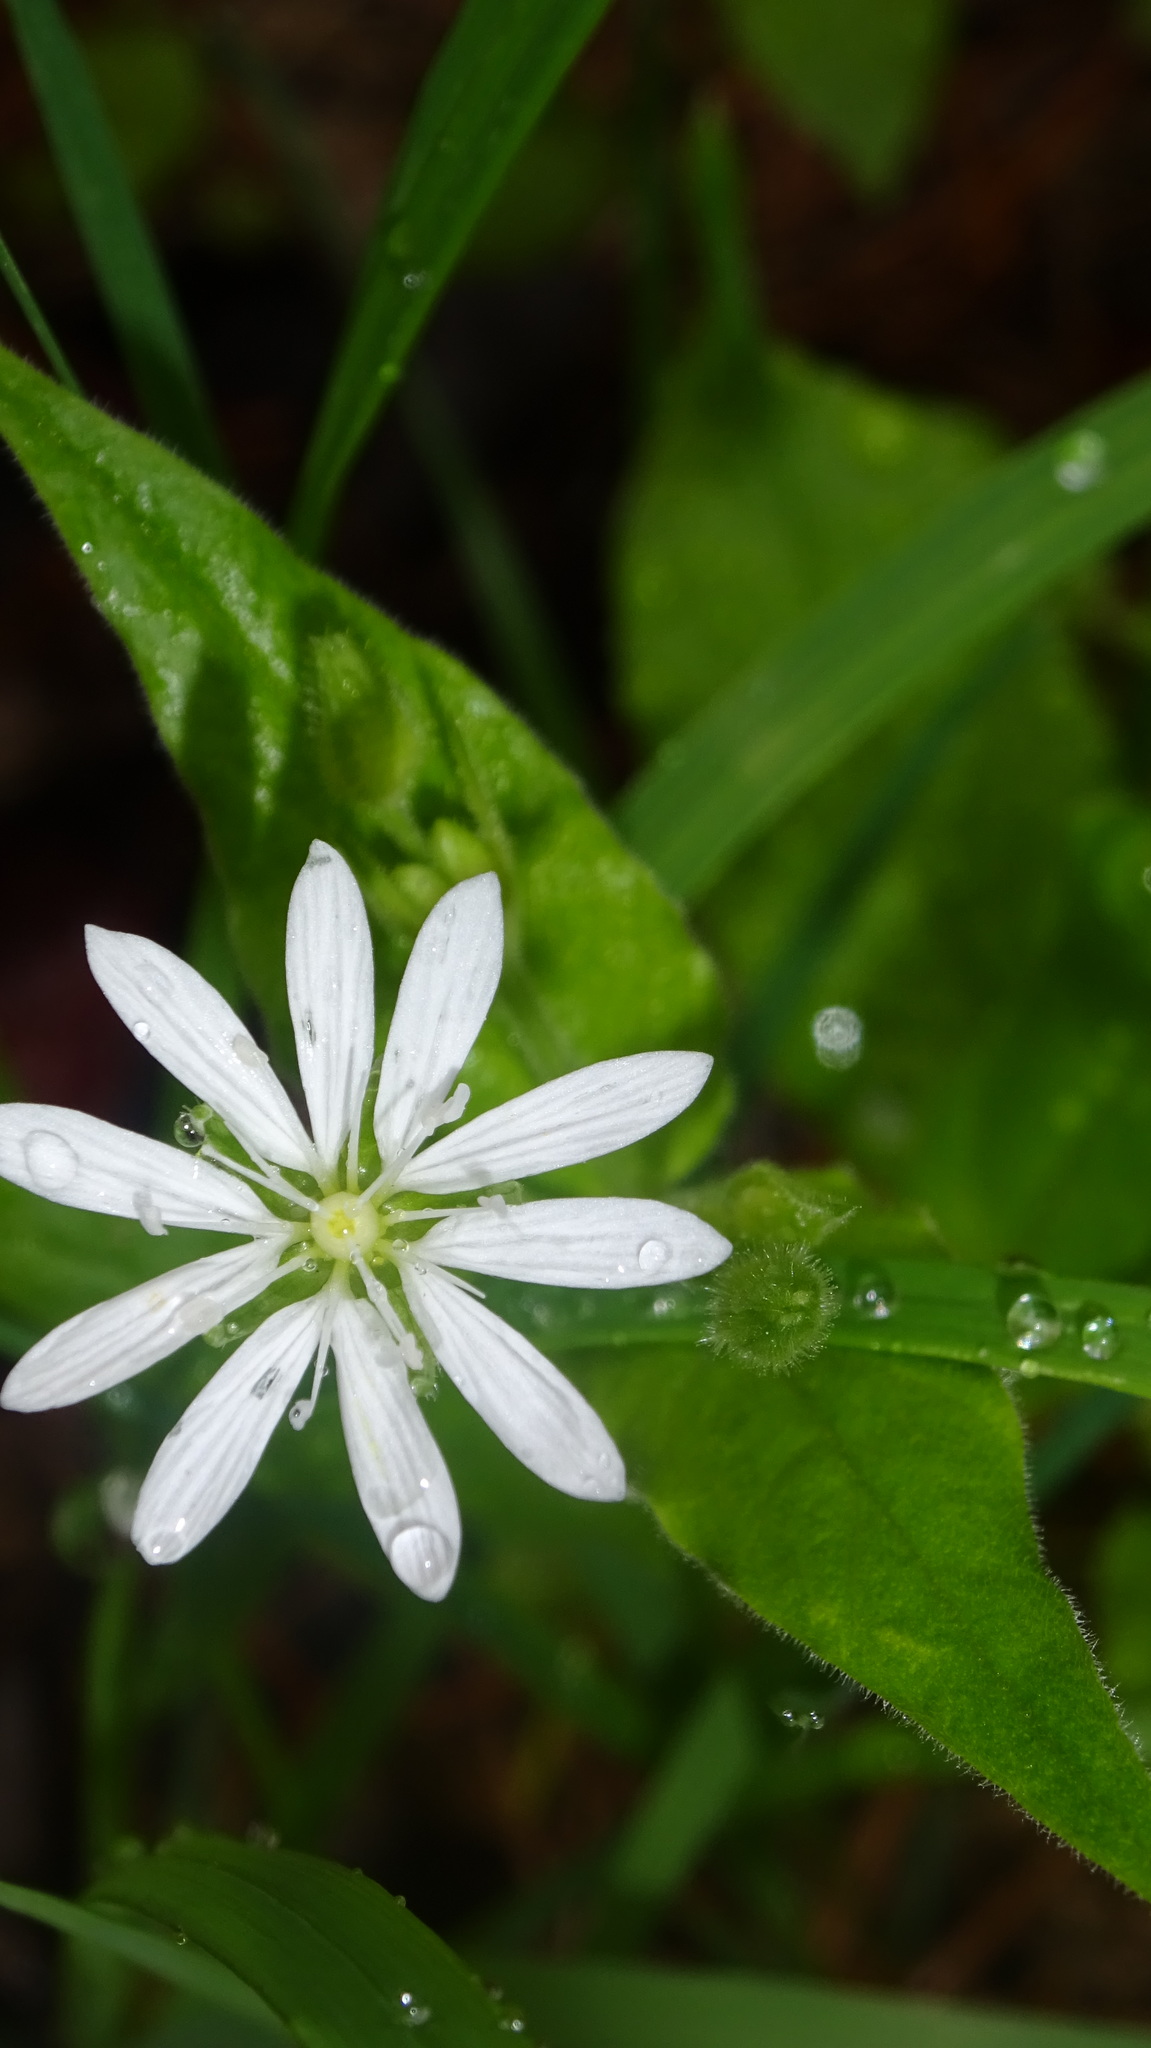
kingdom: Plantae
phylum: Tracheophyta
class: Magnoliopsida
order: Caryophyllales
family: Caryophyllaceae
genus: Stellaria
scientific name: Stellaria bungeana
